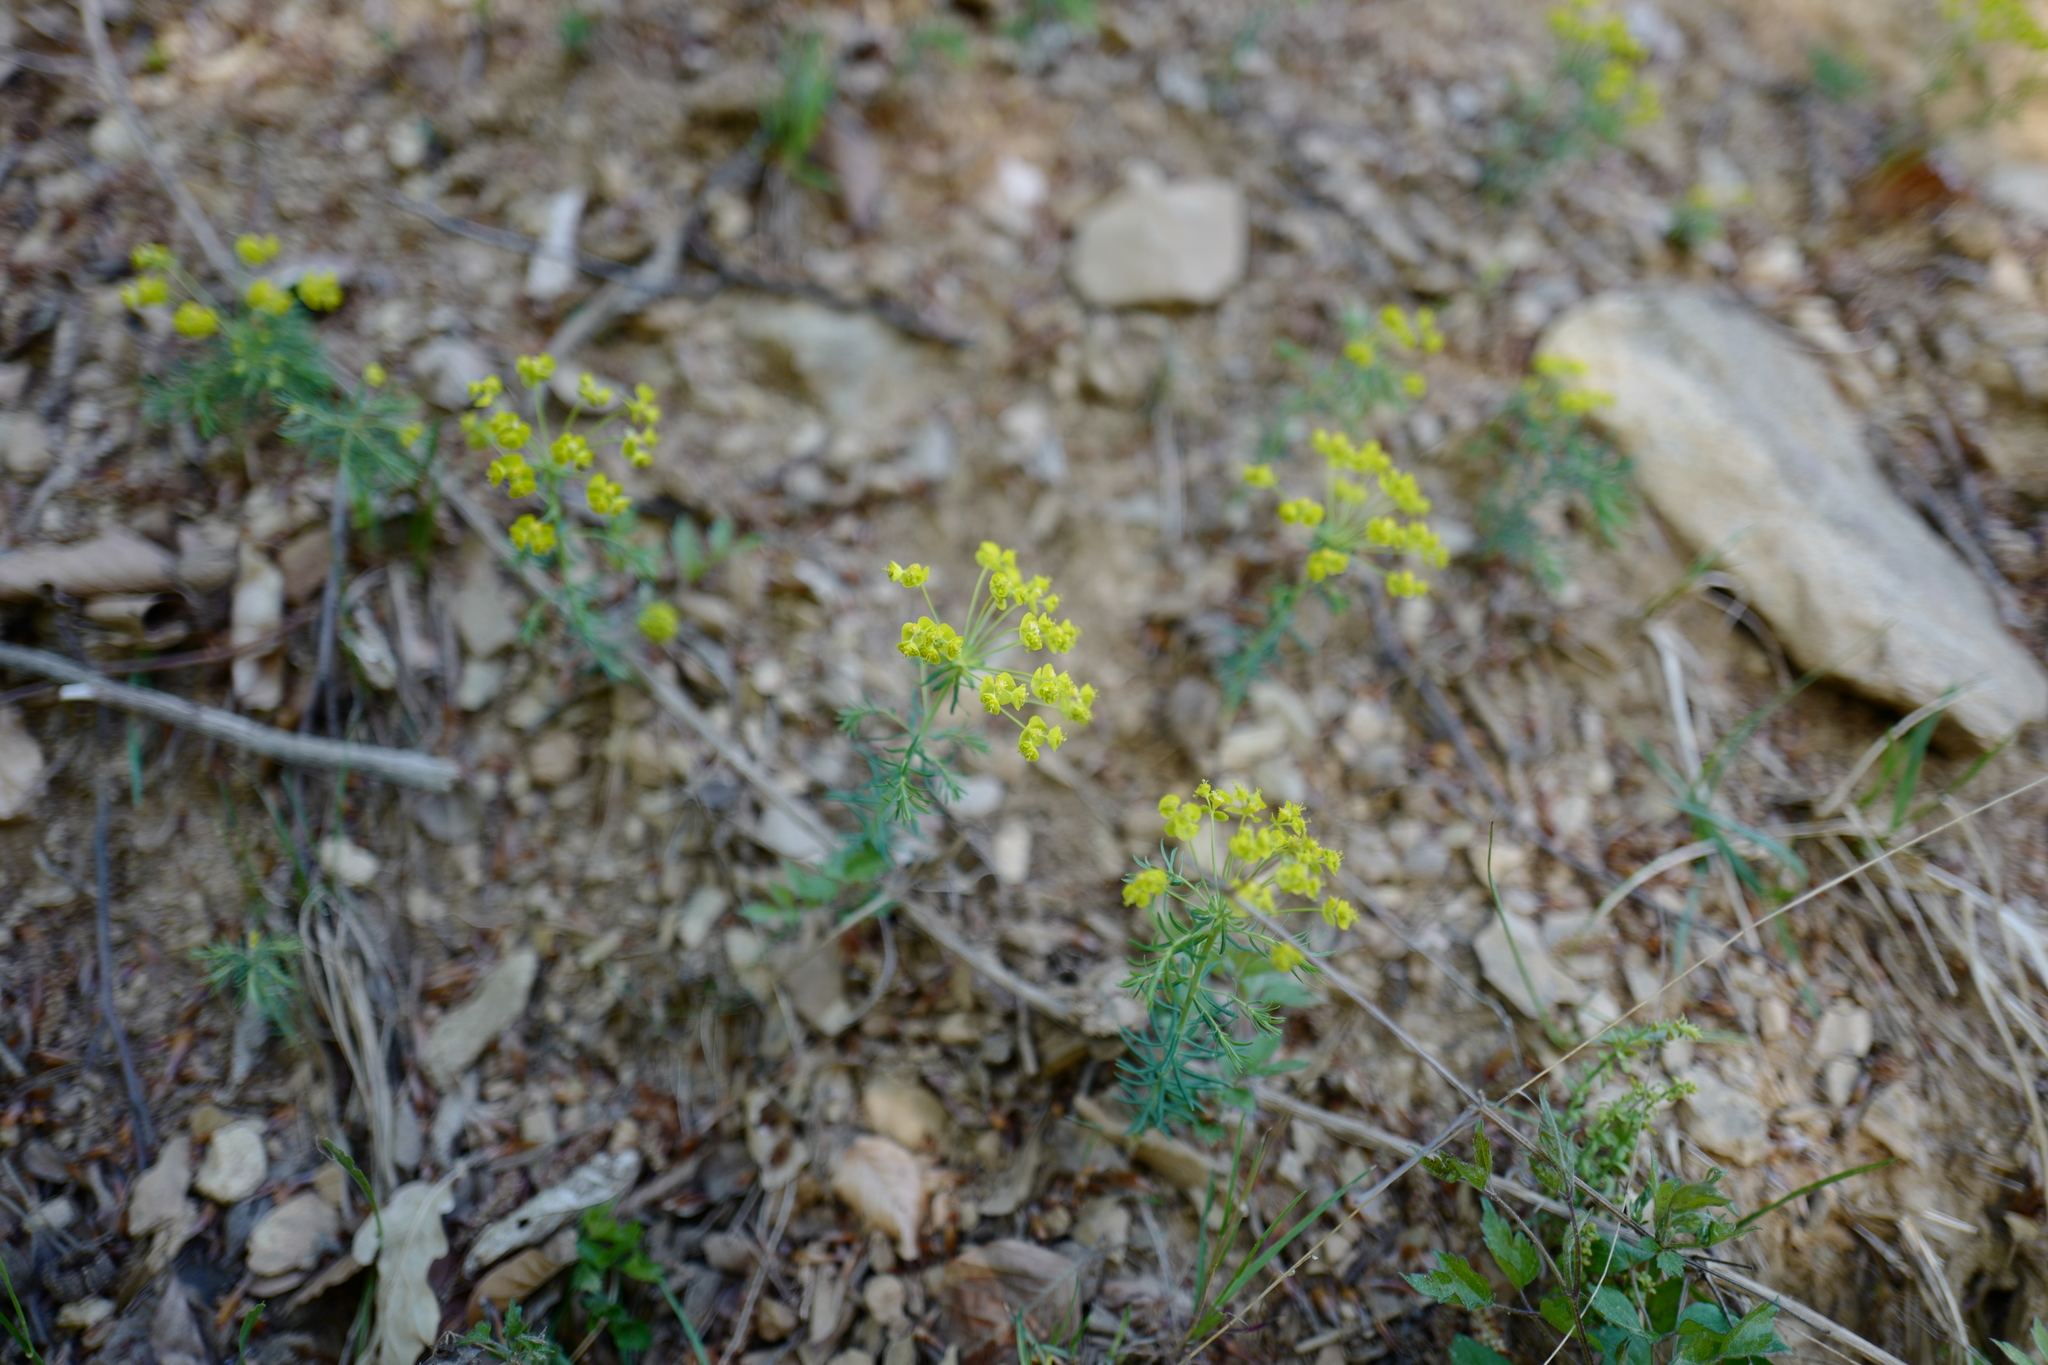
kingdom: Plantae
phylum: Tracheophyta
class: Magnoliopsida
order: Malpighiales
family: Euphorbiaceae
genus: Euphorbia
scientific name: Euphorbia cyparissias
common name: Cypress spurge
